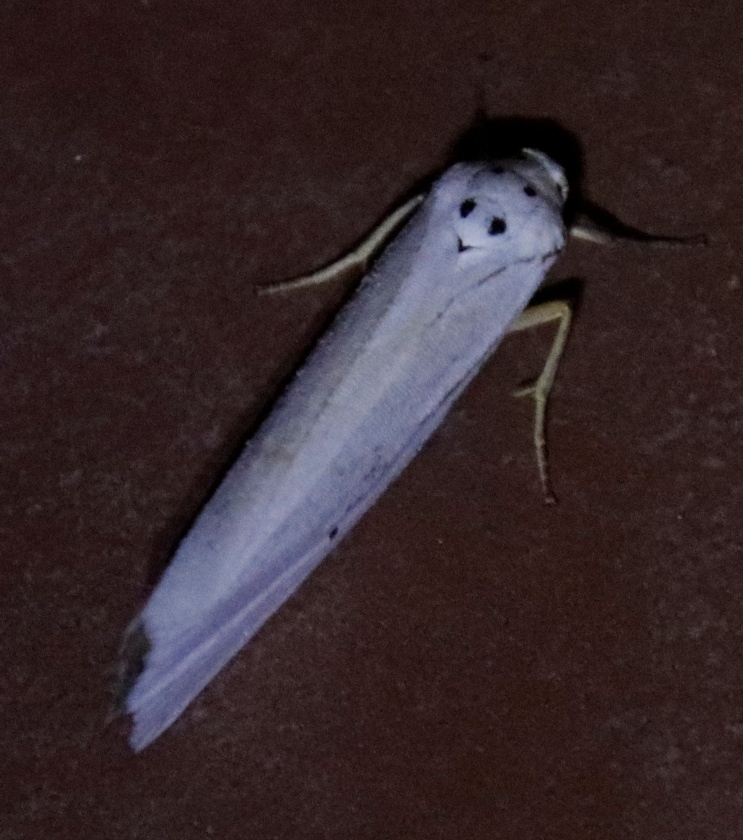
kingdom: Animalia
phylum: Arthropoda
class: Insecta
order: Lepidoptera
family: Erebidae
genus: Ilemodes
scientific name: Ilemodes astriga
